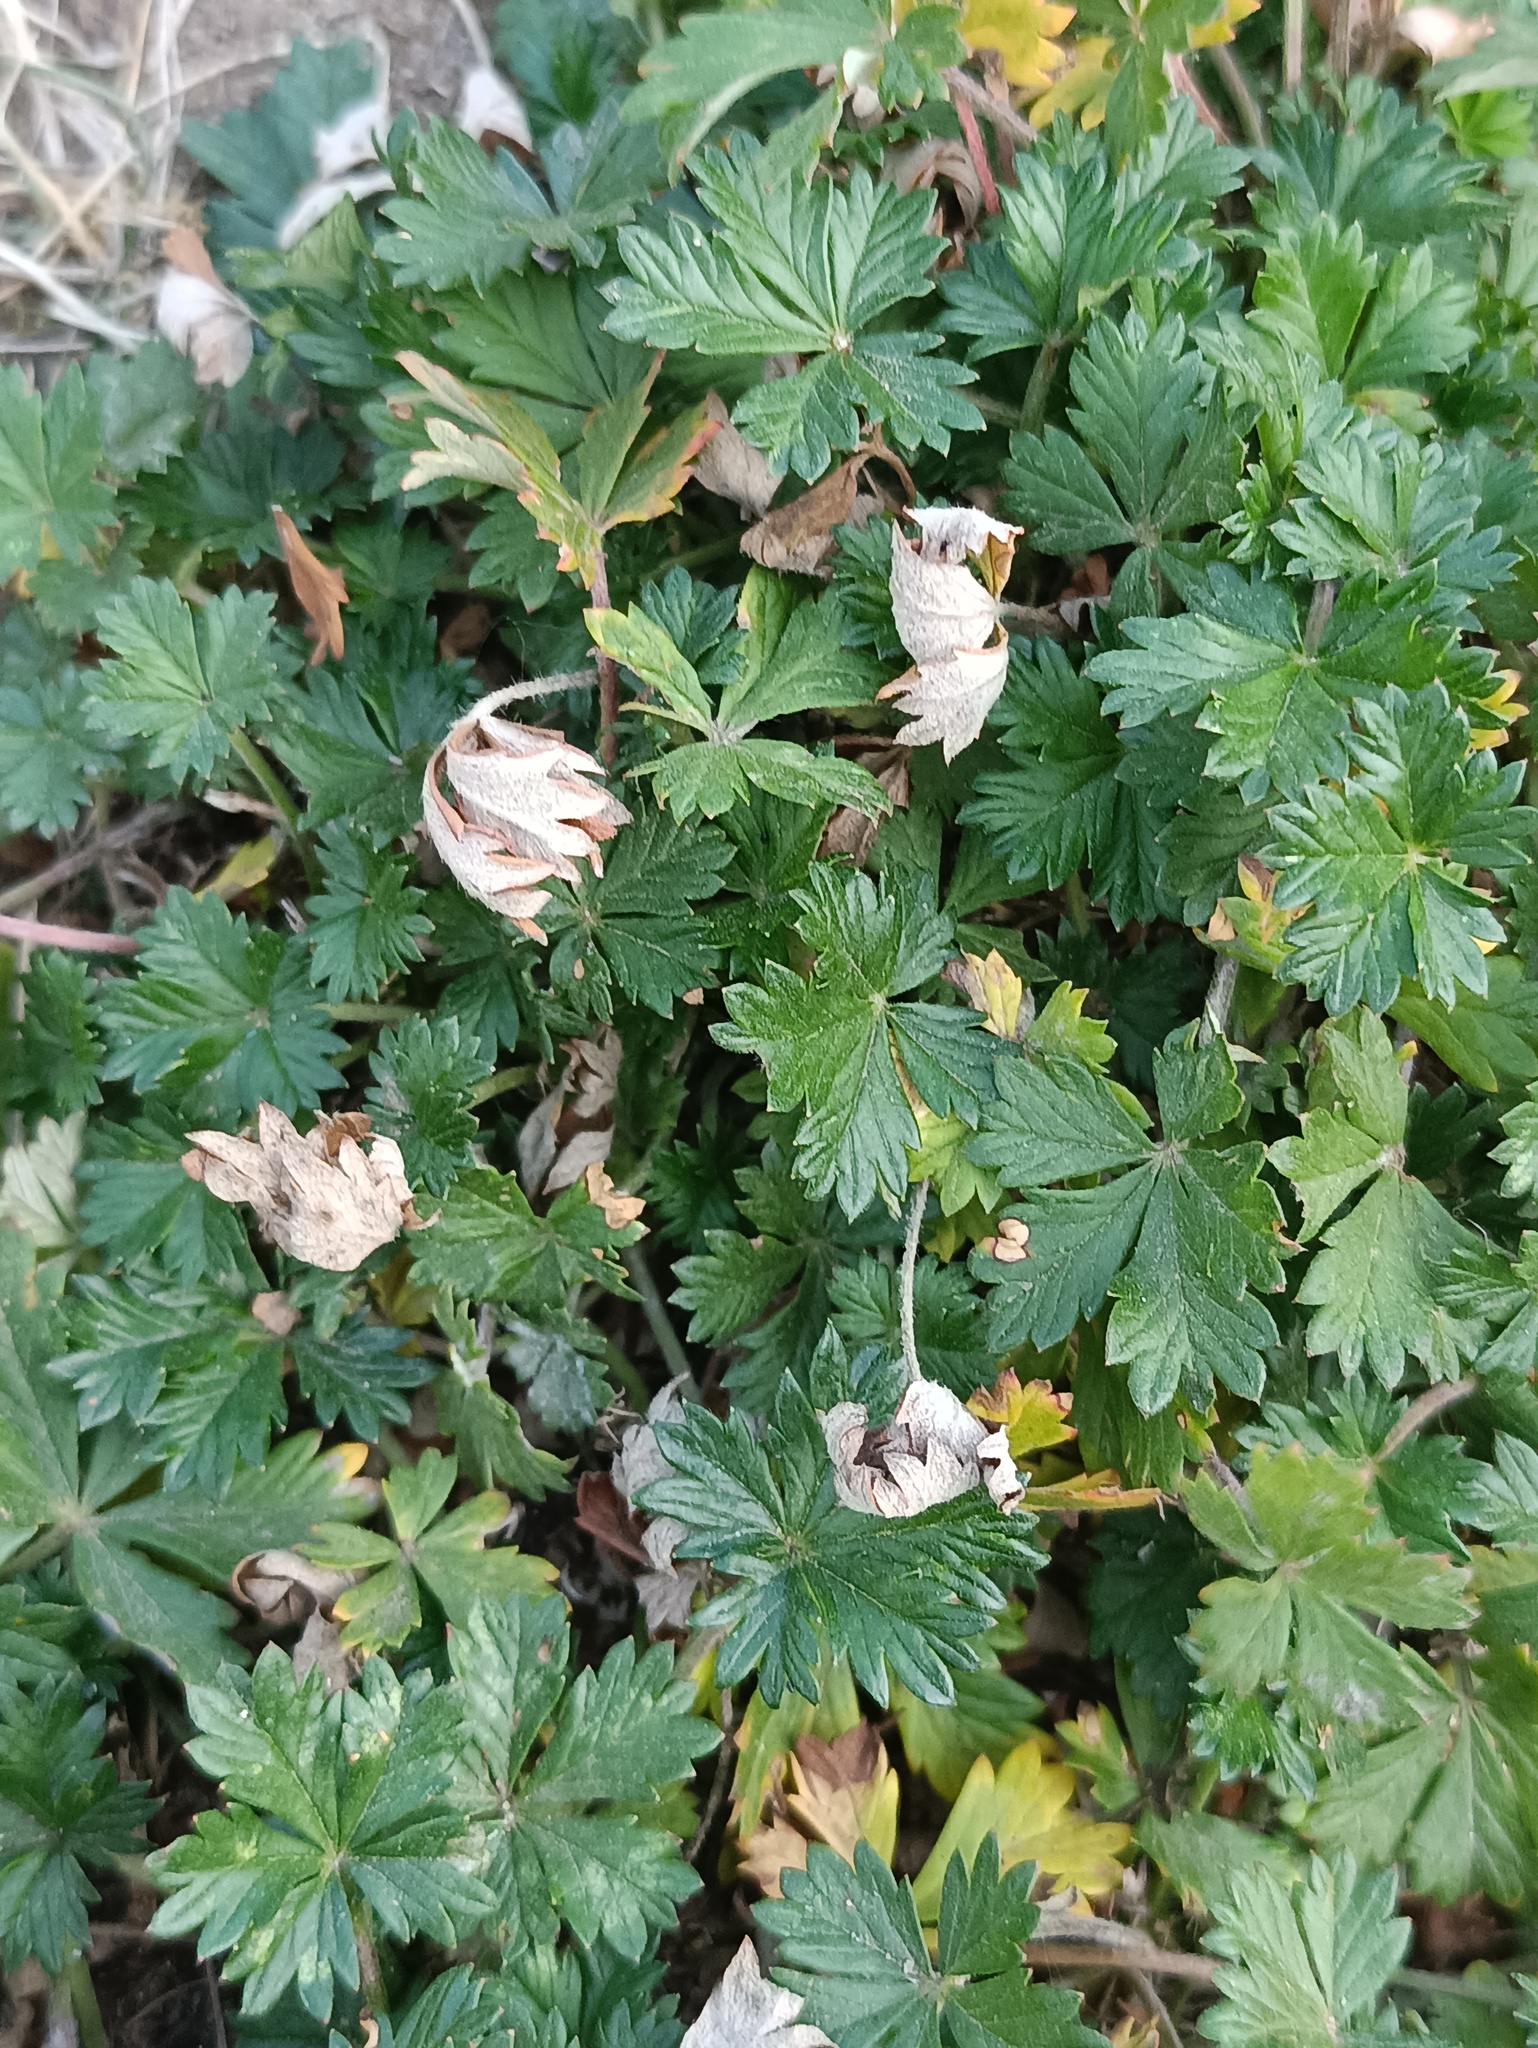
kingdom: Plantae
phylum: Tracheophyta
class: Magnoliopsida
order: Rosales
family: Rosaceae
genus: Potentilla
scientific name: Potentilla argentea
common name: Hoary cinquefoil
